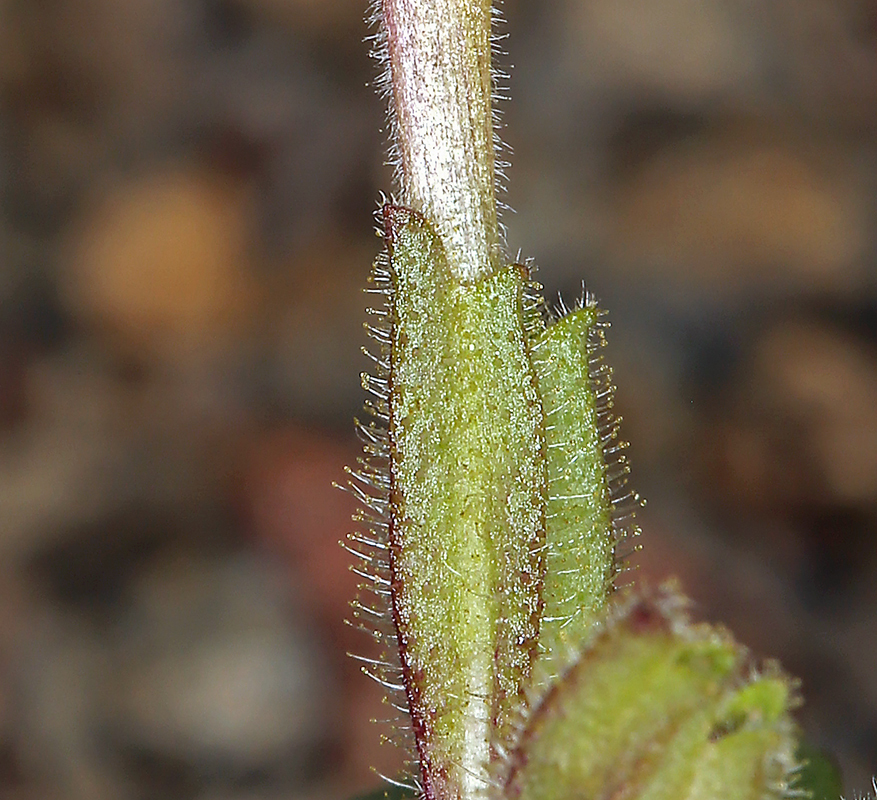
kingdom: Plantae
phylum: Tracheophyta
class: Magnoliopsida
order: Lamiales
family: Phrymaceae
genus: Diplacus
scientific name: Diplacus kelloggii
